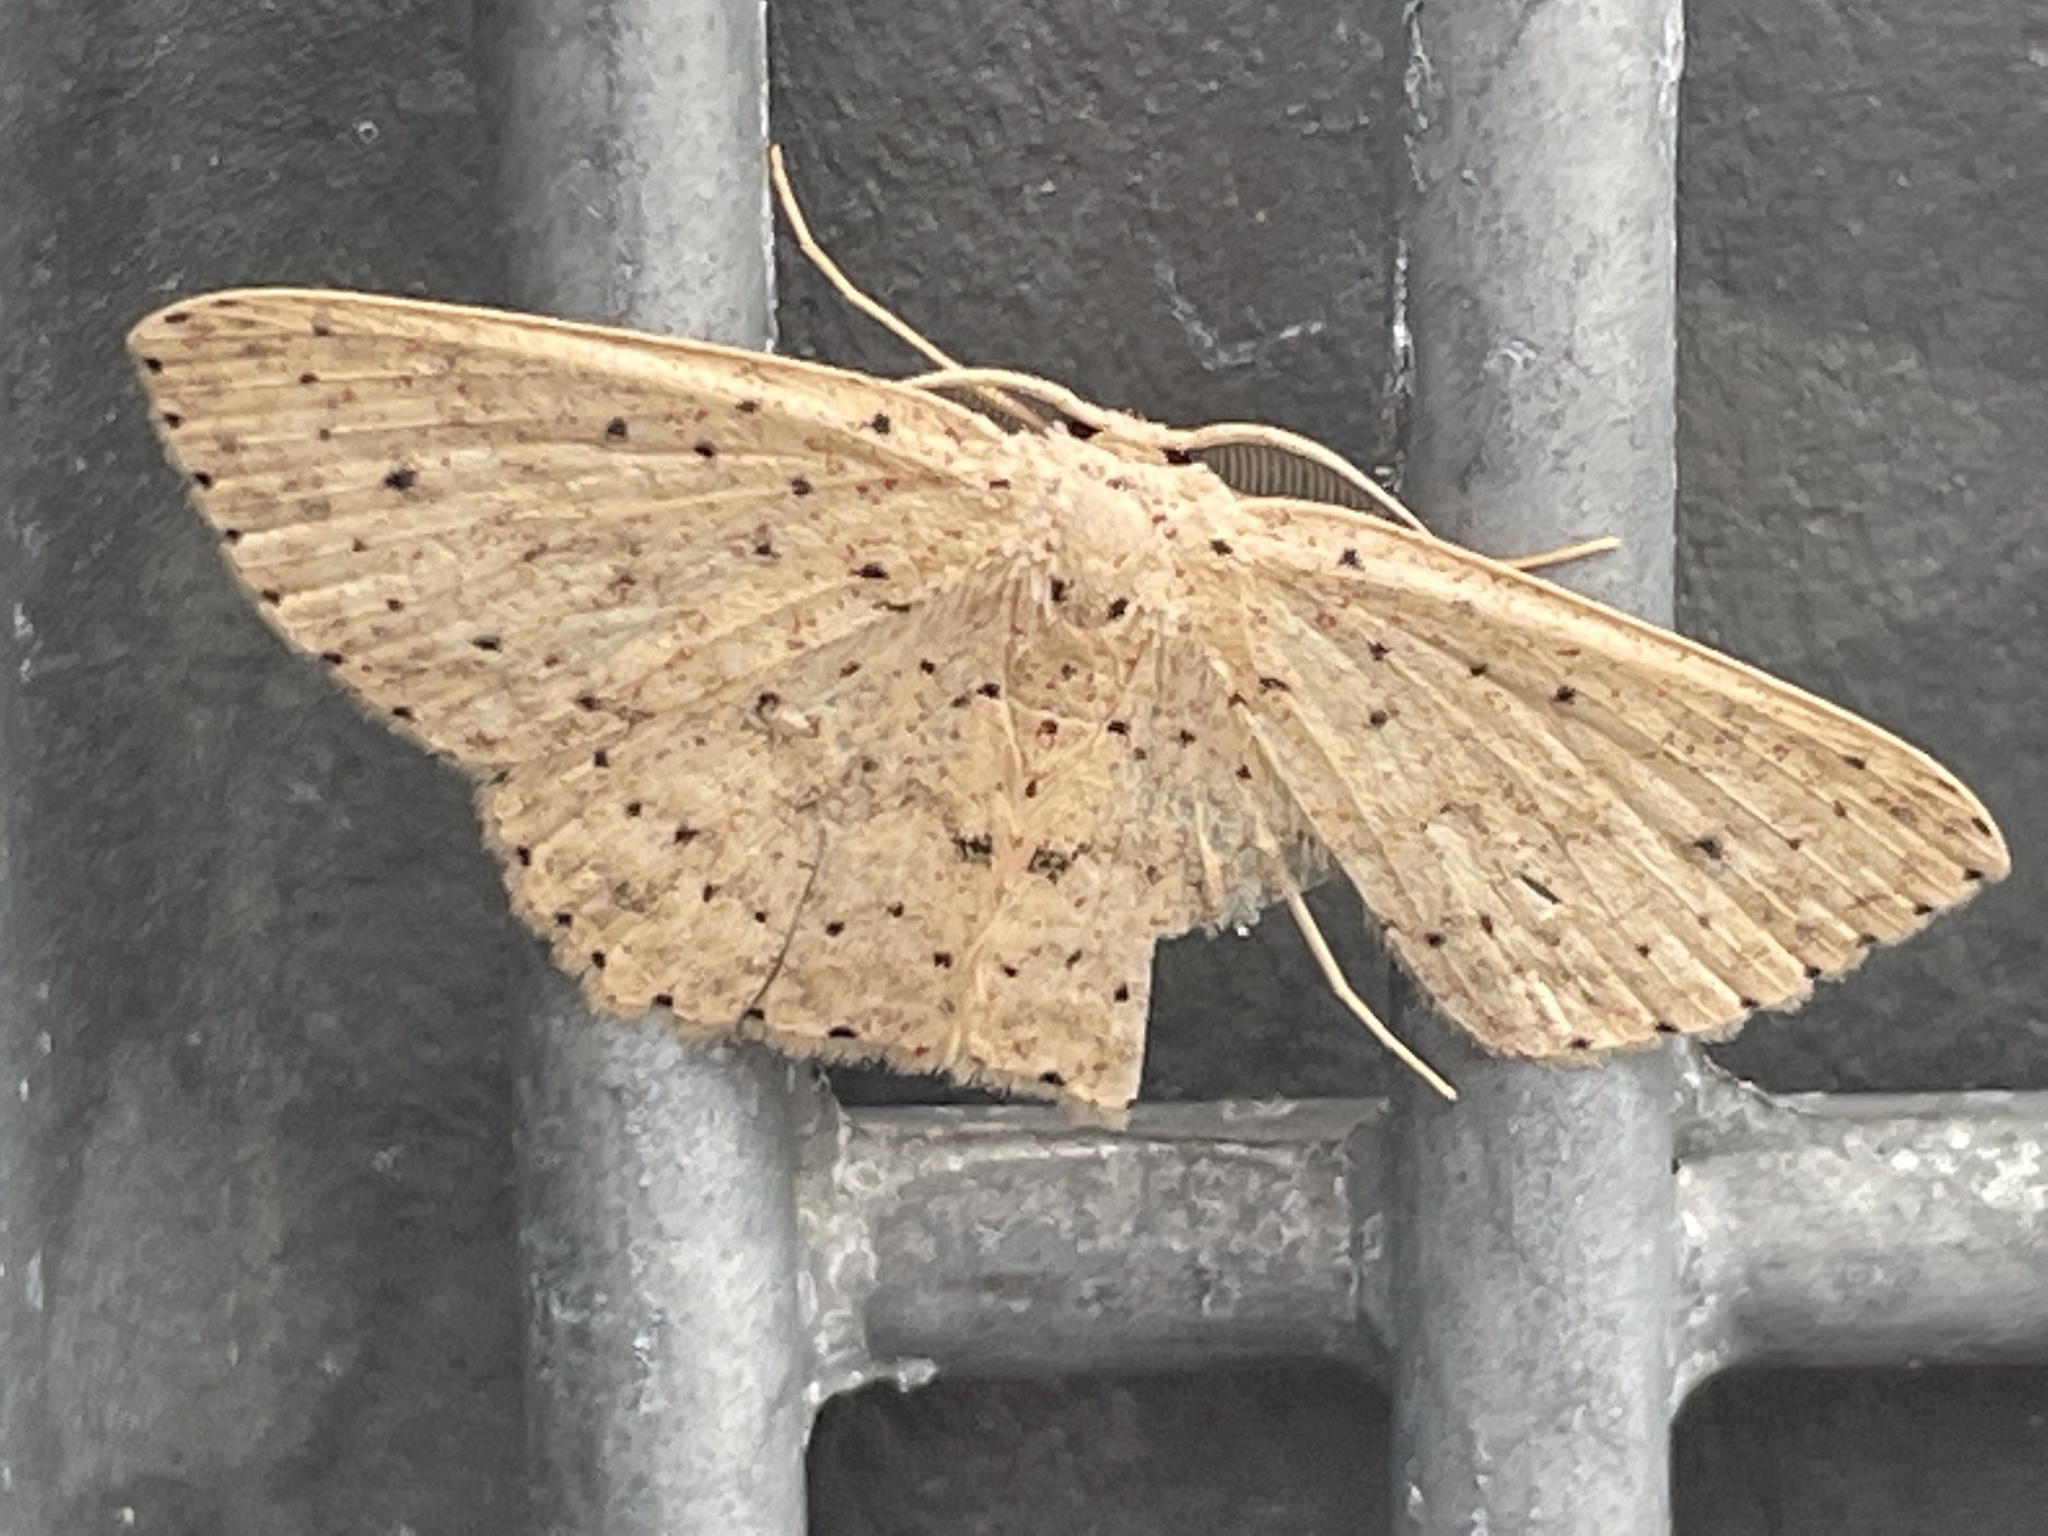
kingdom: Animalia
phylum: Arthropoda
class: Insecta
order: Lepidoptera
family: Geometridae
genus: Cyclophora
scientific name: Cyclophora turneri
